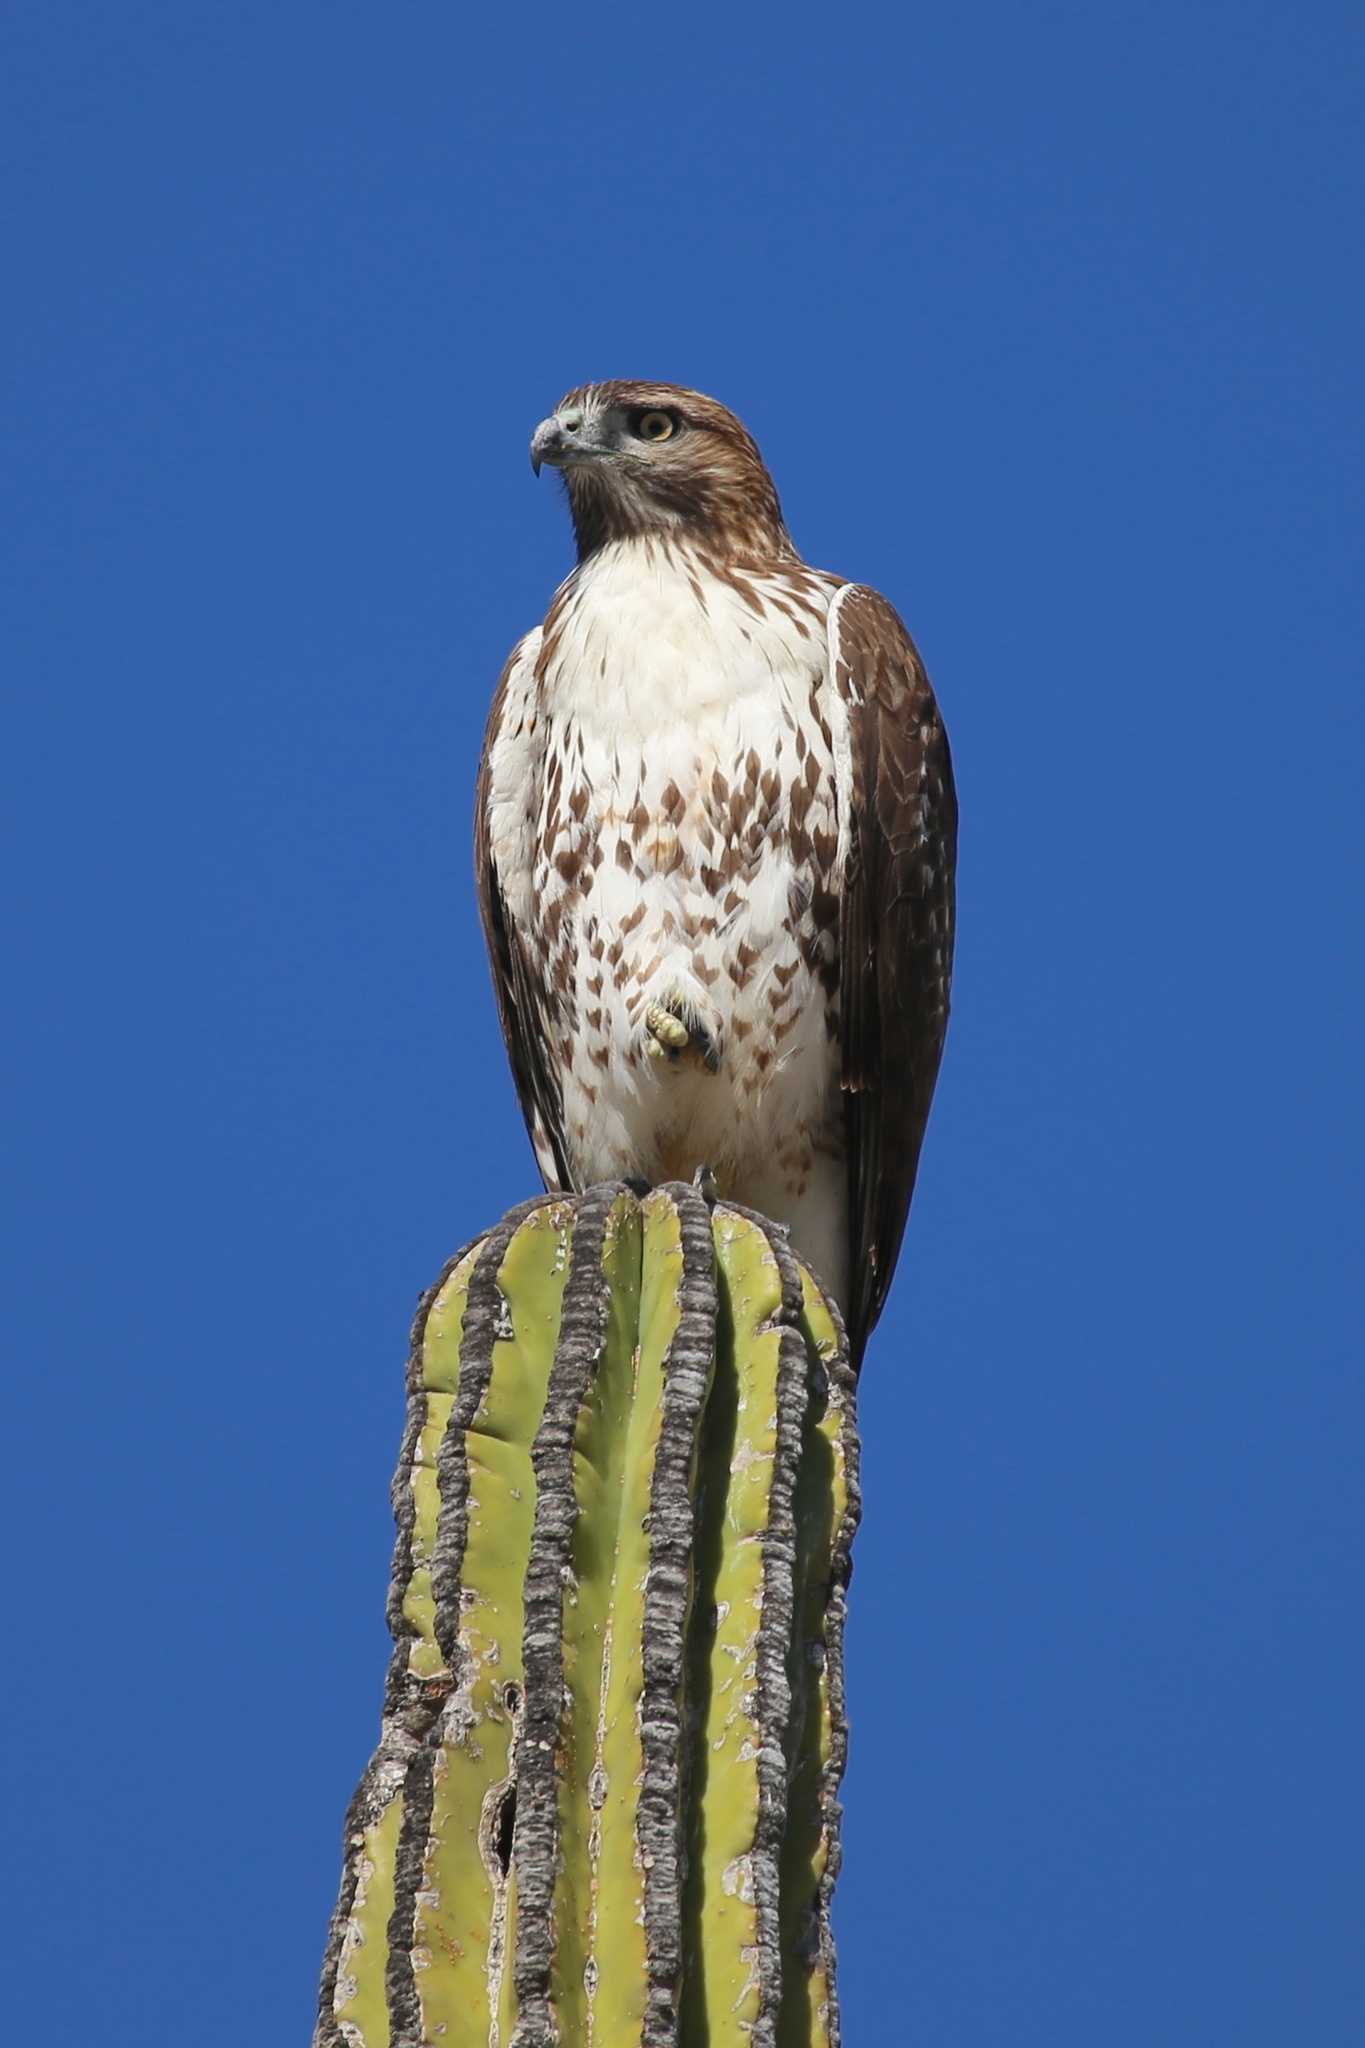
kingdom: Animalia
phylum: Chordata
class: Aves
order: Accipitriformes
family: Accipitridae
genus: Buteo
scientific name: Buteo jamaicensis
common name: Red-tailed hawk
